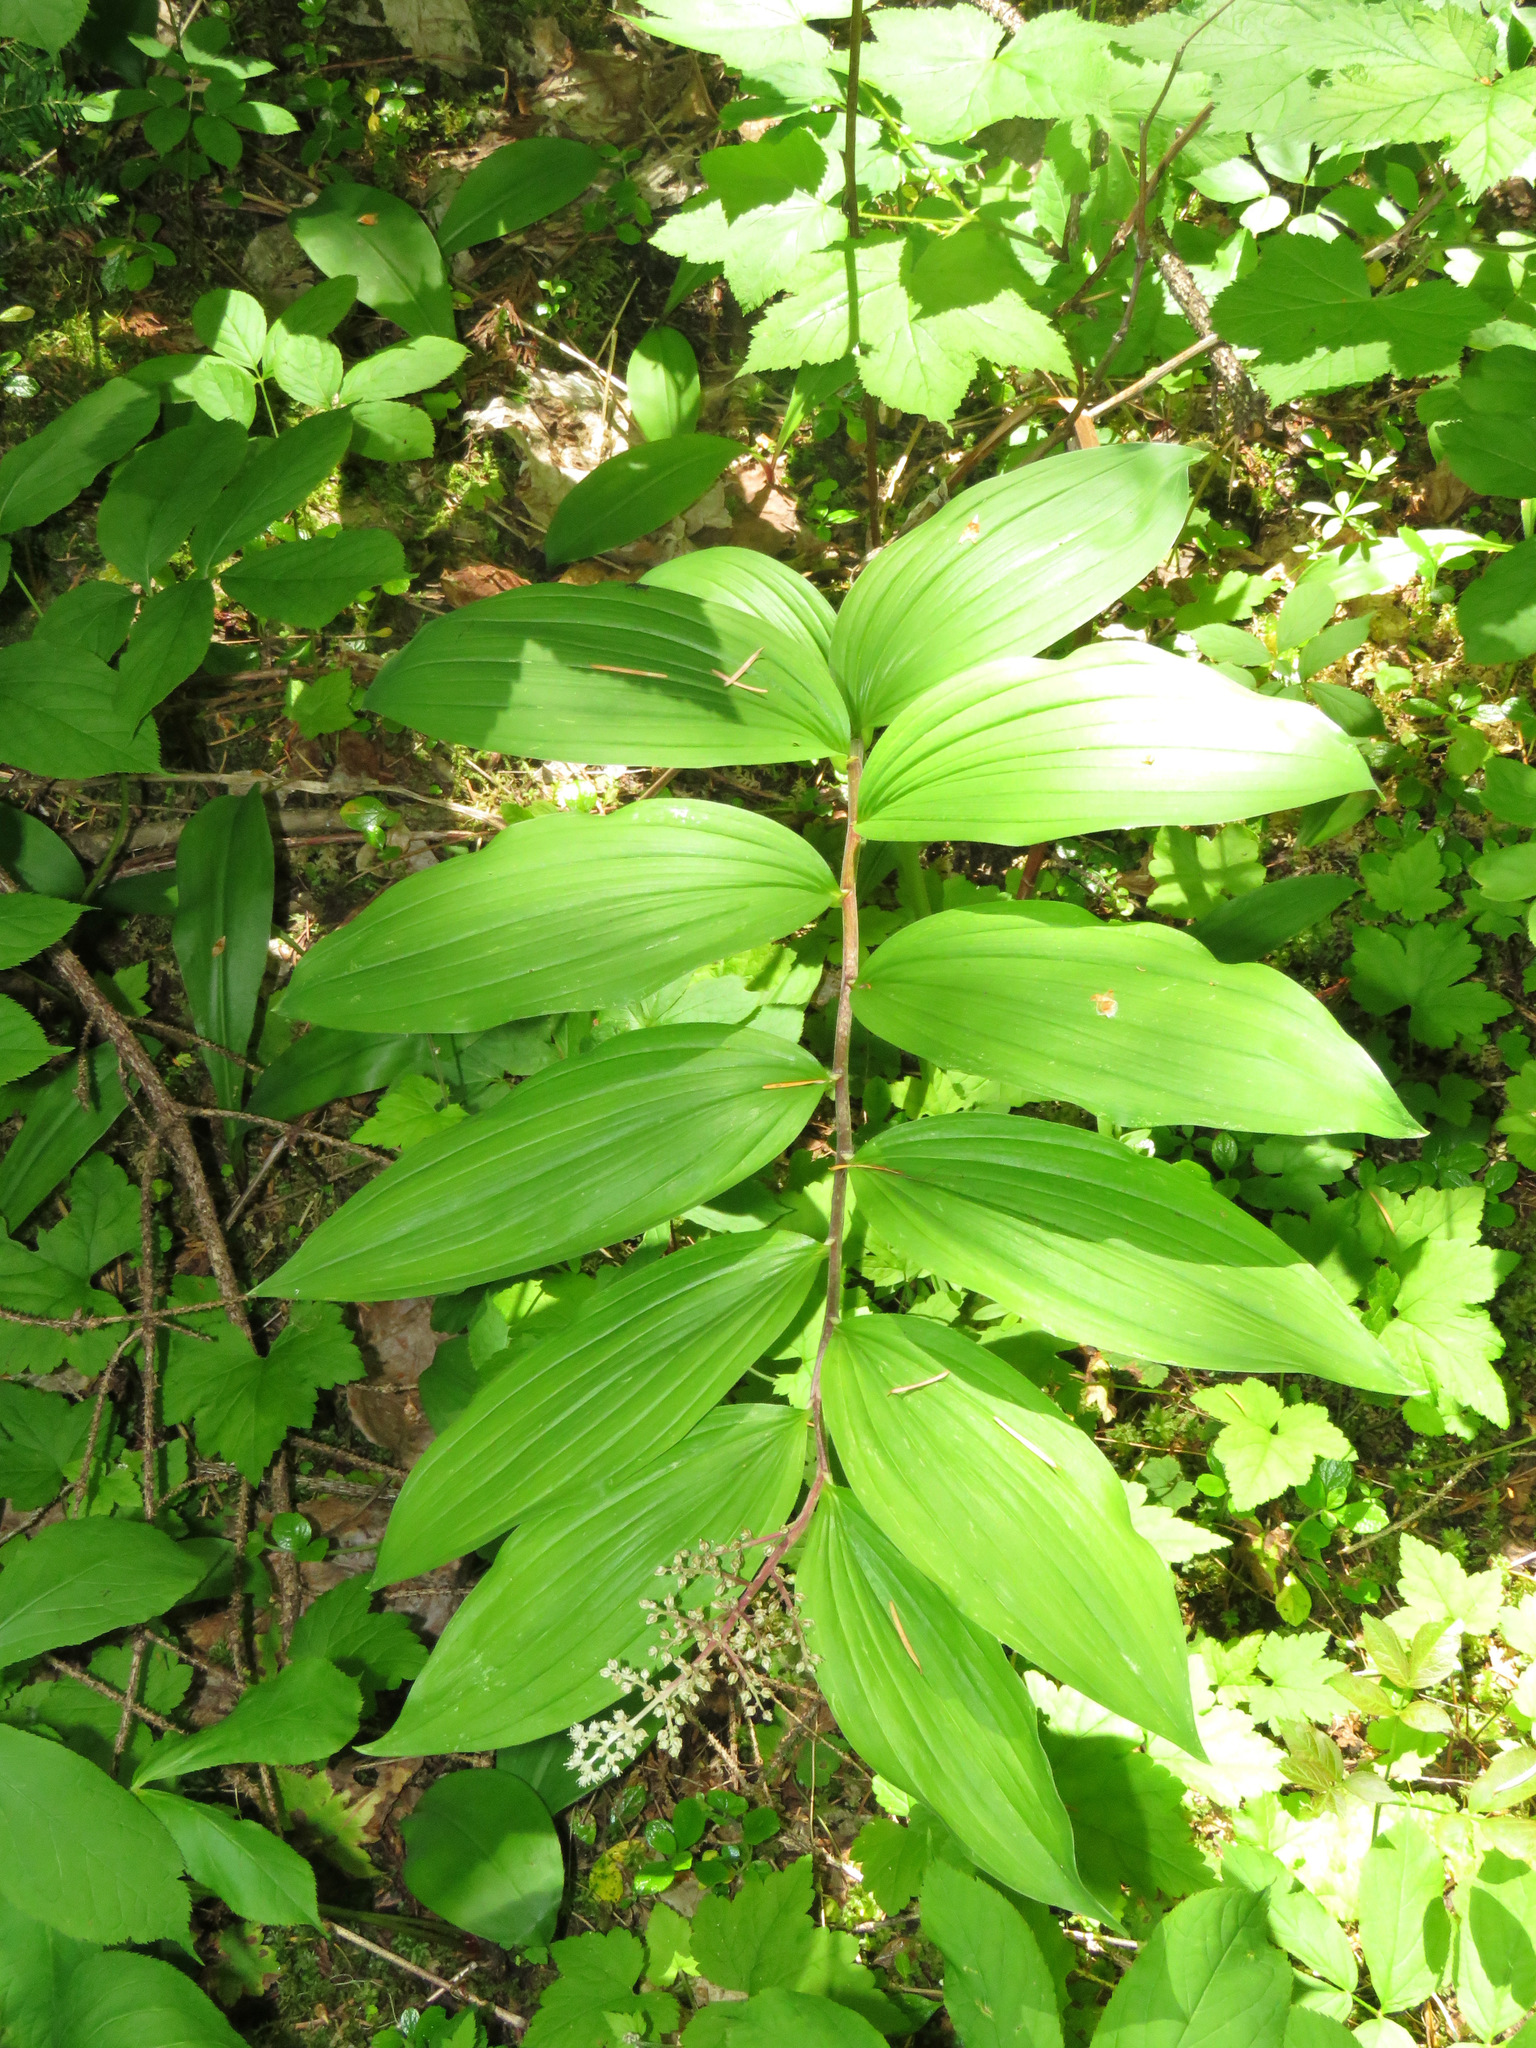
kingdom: Plantae
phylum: Tracheophyta
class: Liliopsida
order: Asparagales
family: Asparagaceae
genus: Maianthemum
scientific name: Maianthemum racemosum
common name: False spikenard
